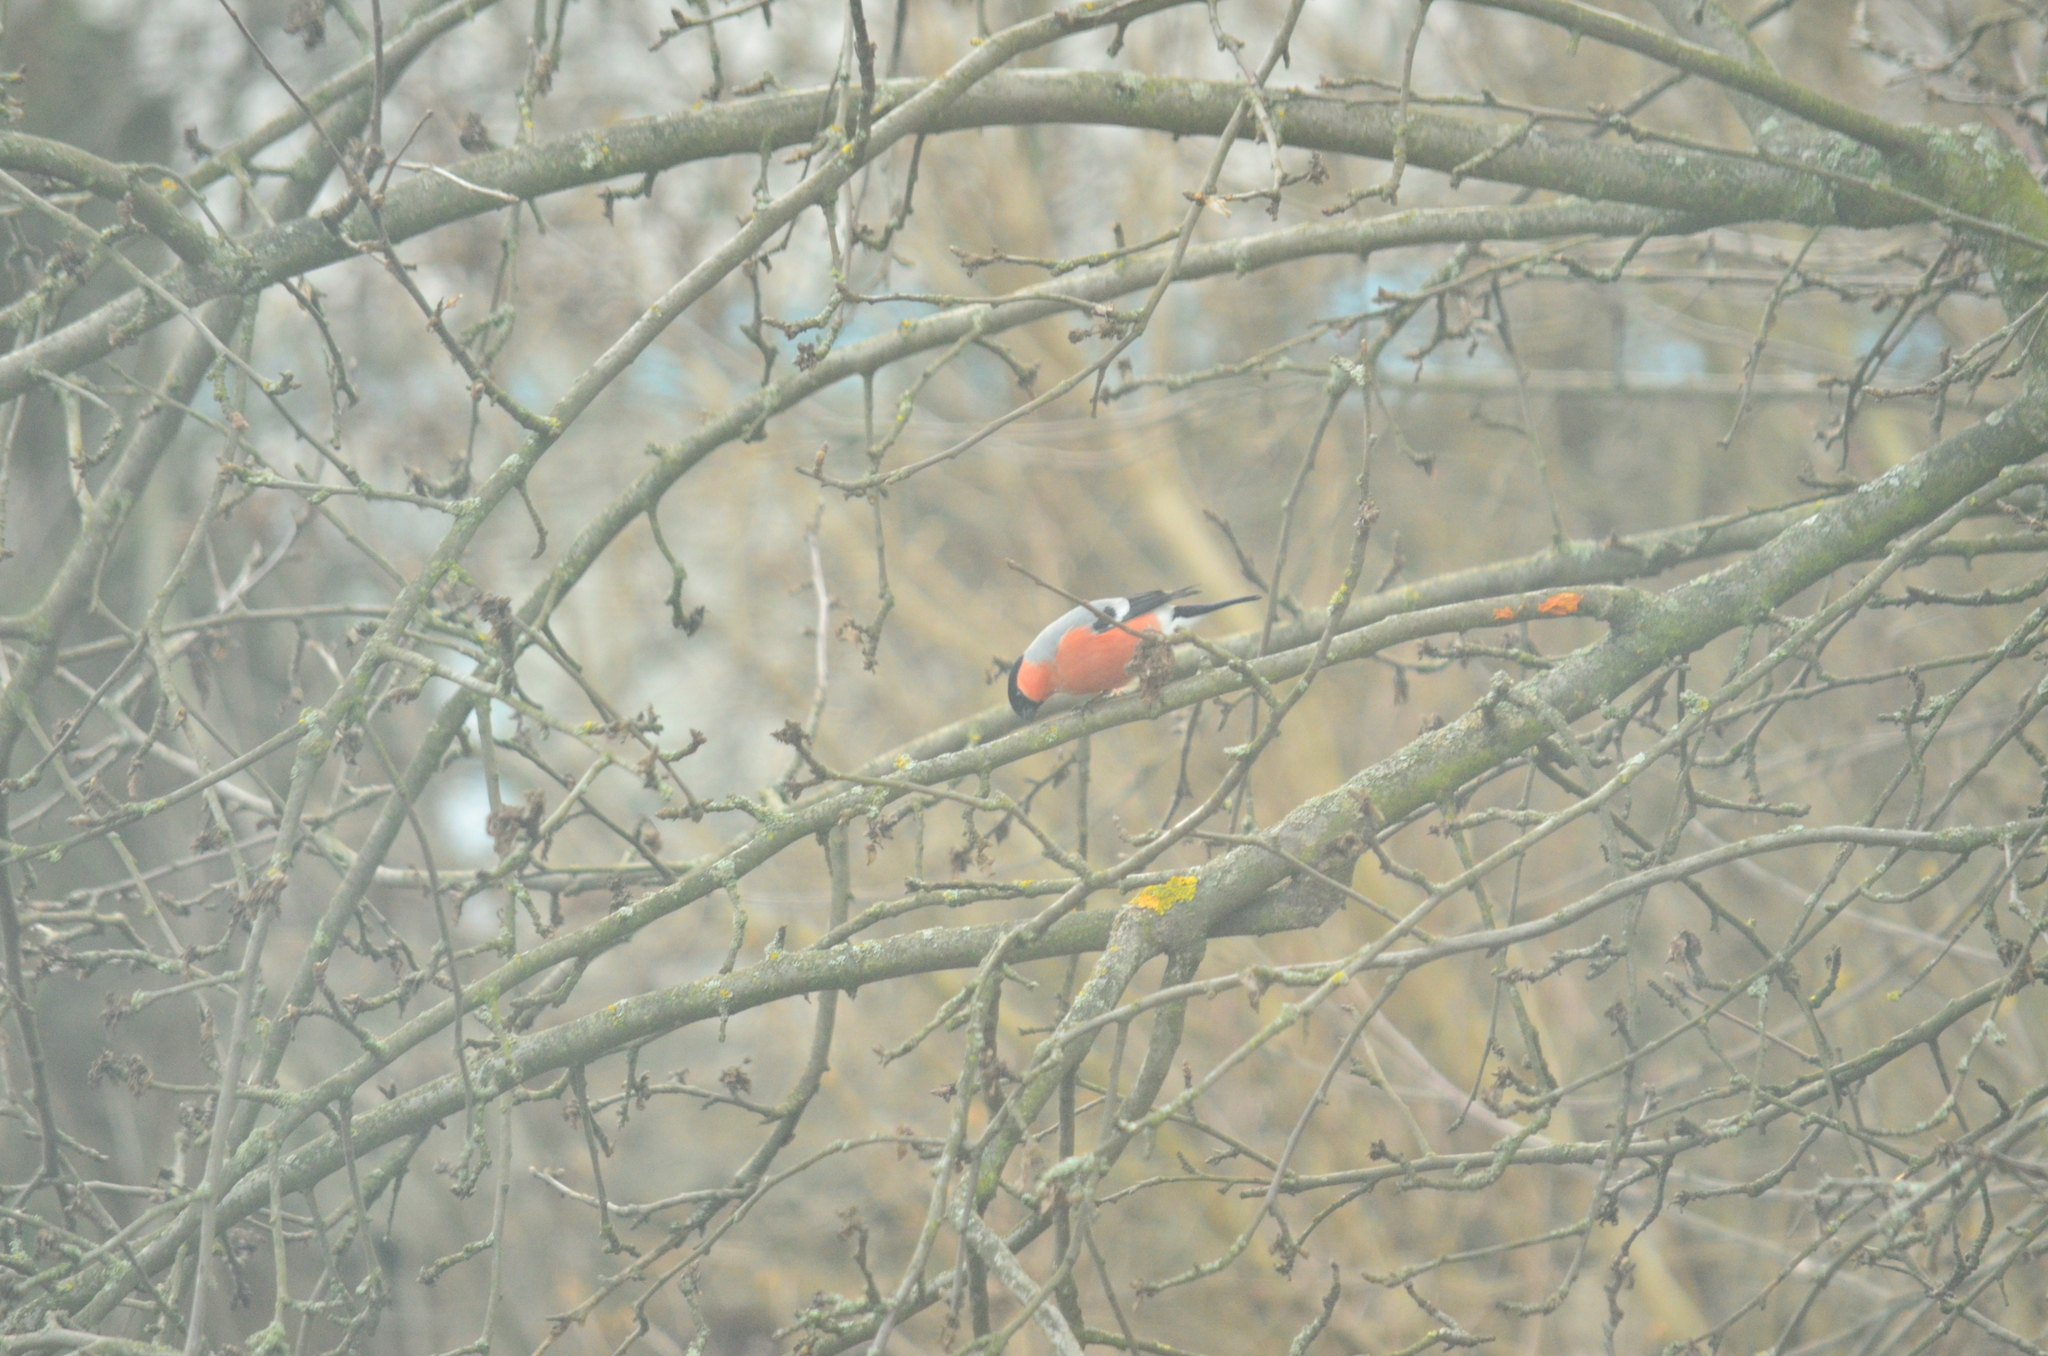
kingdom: Animalia
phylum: Chordata
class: Aves
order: Passeriformes
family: Fringillidae
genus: Pyrrhula
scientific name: Pyrrhula pyrrhula
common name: Eurasian bullfinch
